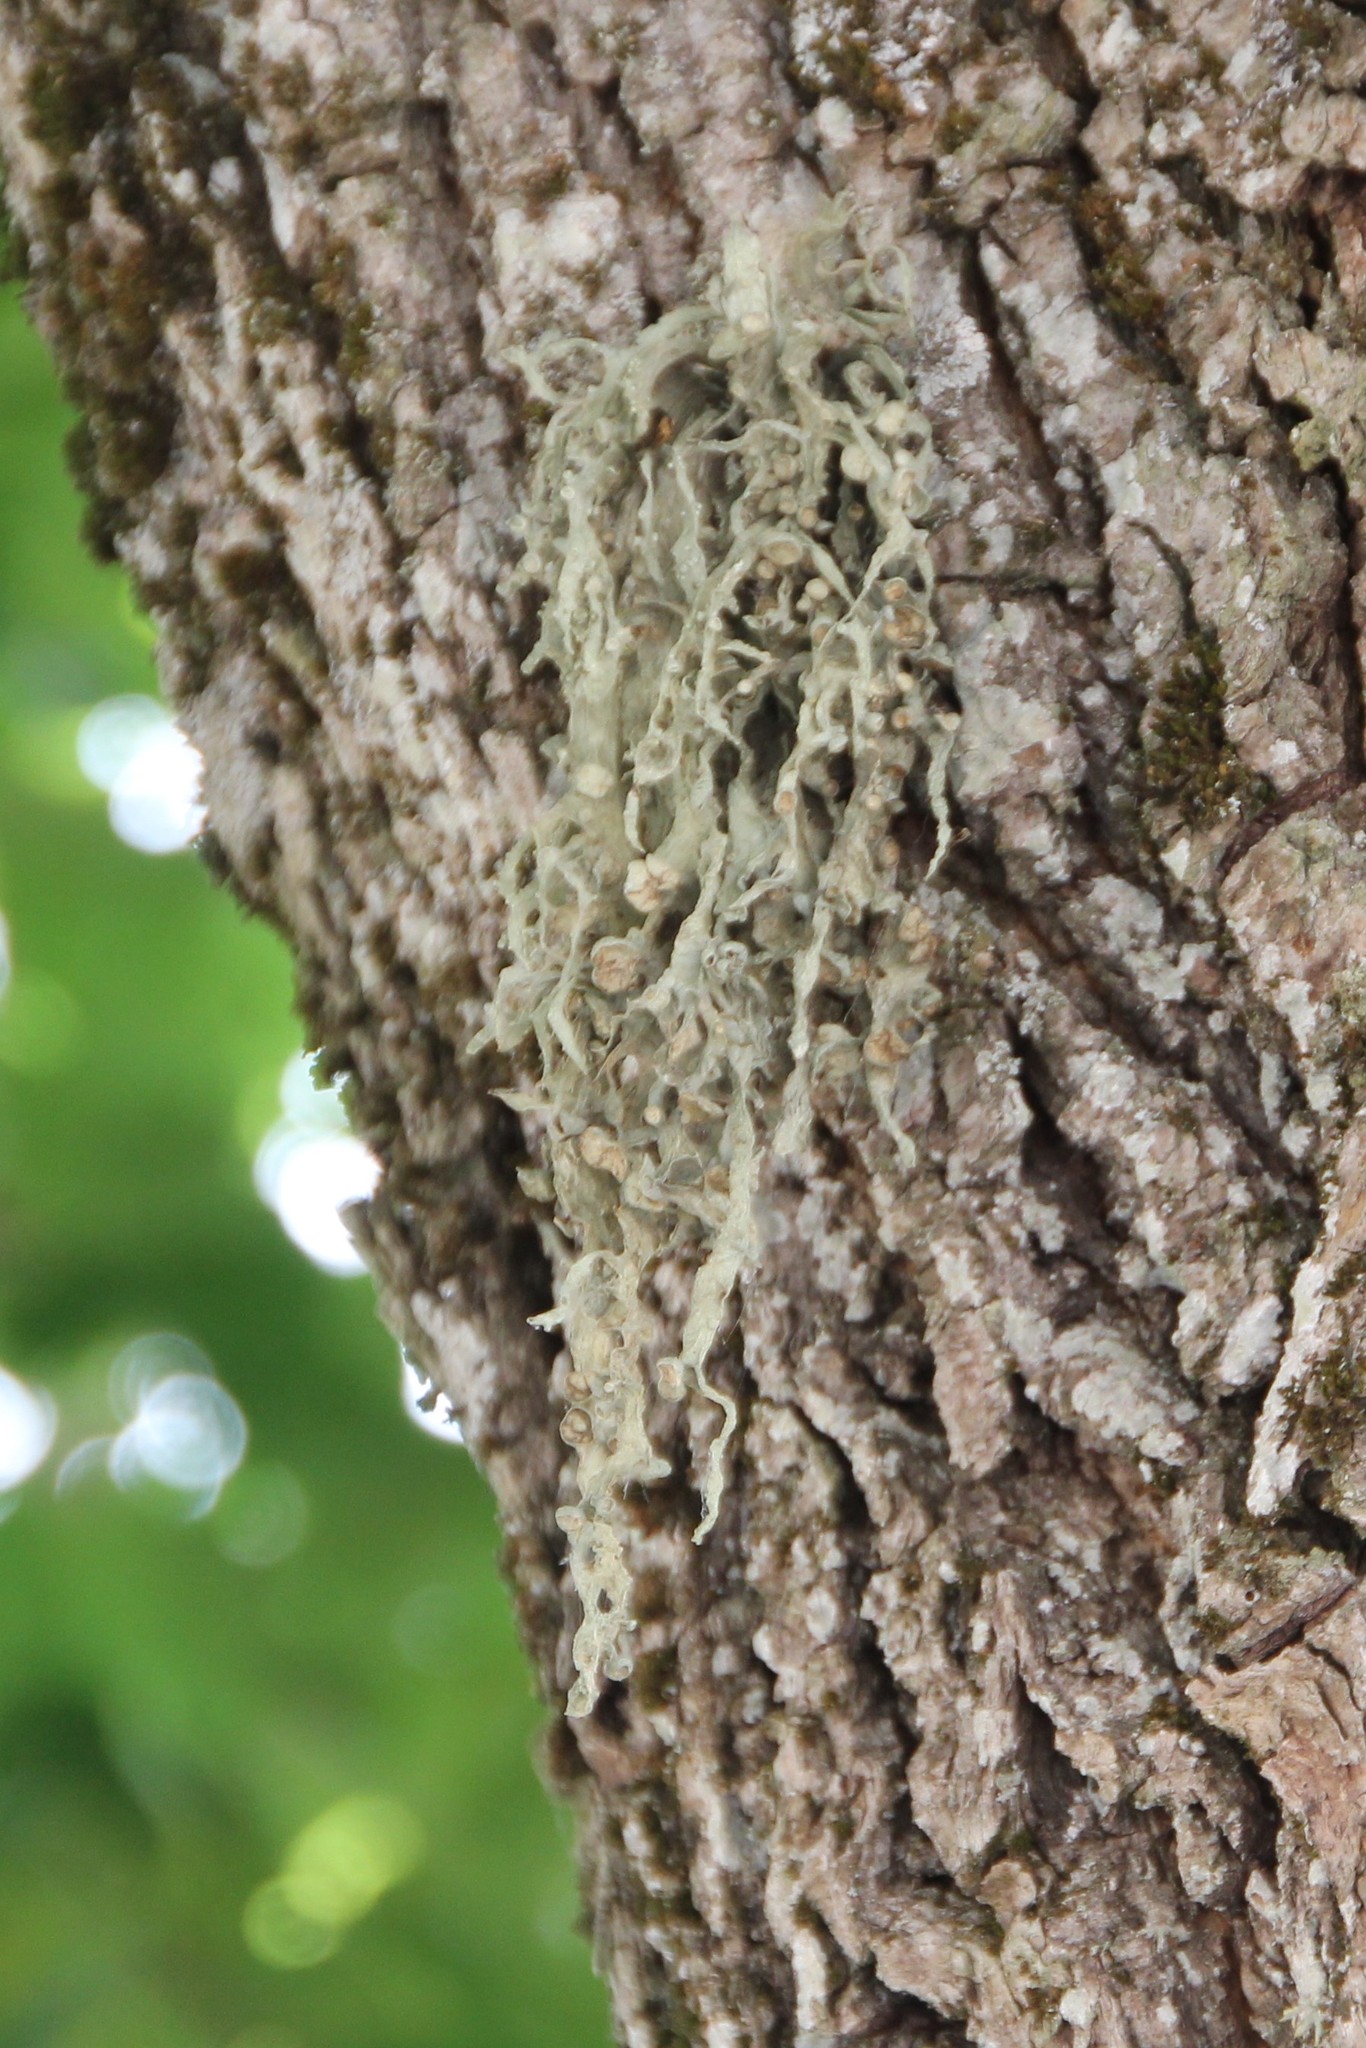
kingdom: Fungi
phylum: Ascomycota
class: Lecanoromycetes
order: Lecanorales
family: Ramalinaceae
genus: Ramalina
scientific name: Ramalina fraxinea
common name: Cartilage lichen
